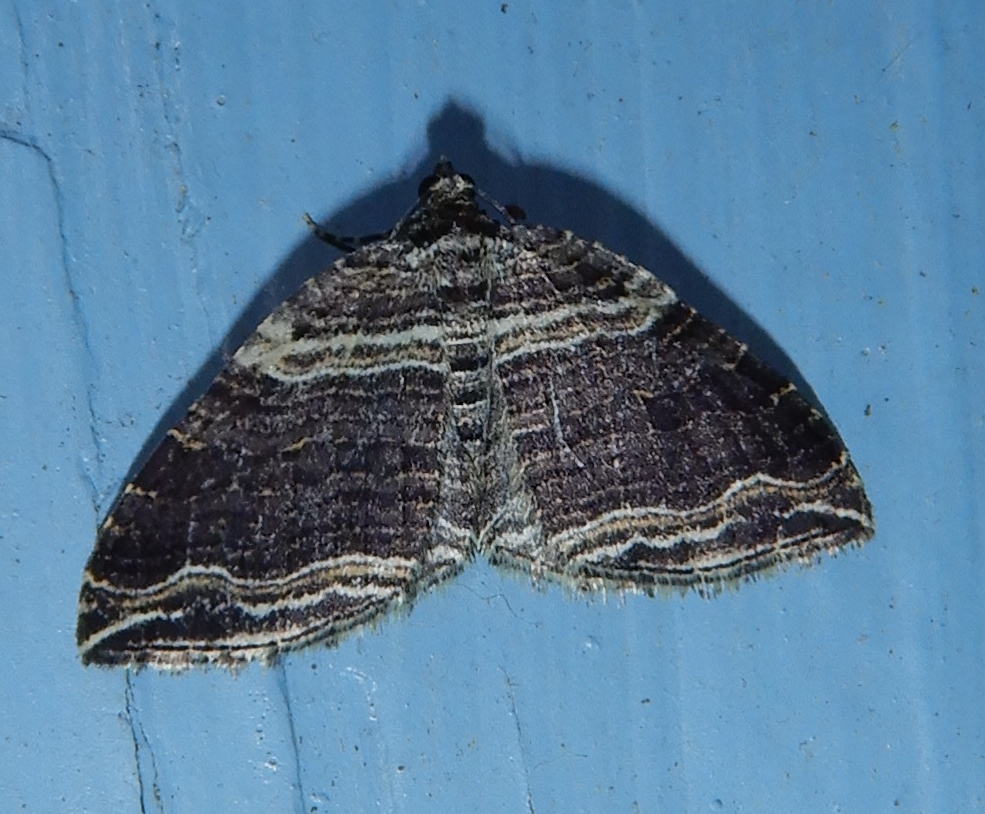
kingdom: Animalia
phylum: Arthropoda
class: Insecta
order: Lepidoptera
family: Geometridae
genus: Anticlea
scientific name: Anticlea multiferata
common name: Many-lined carpet
